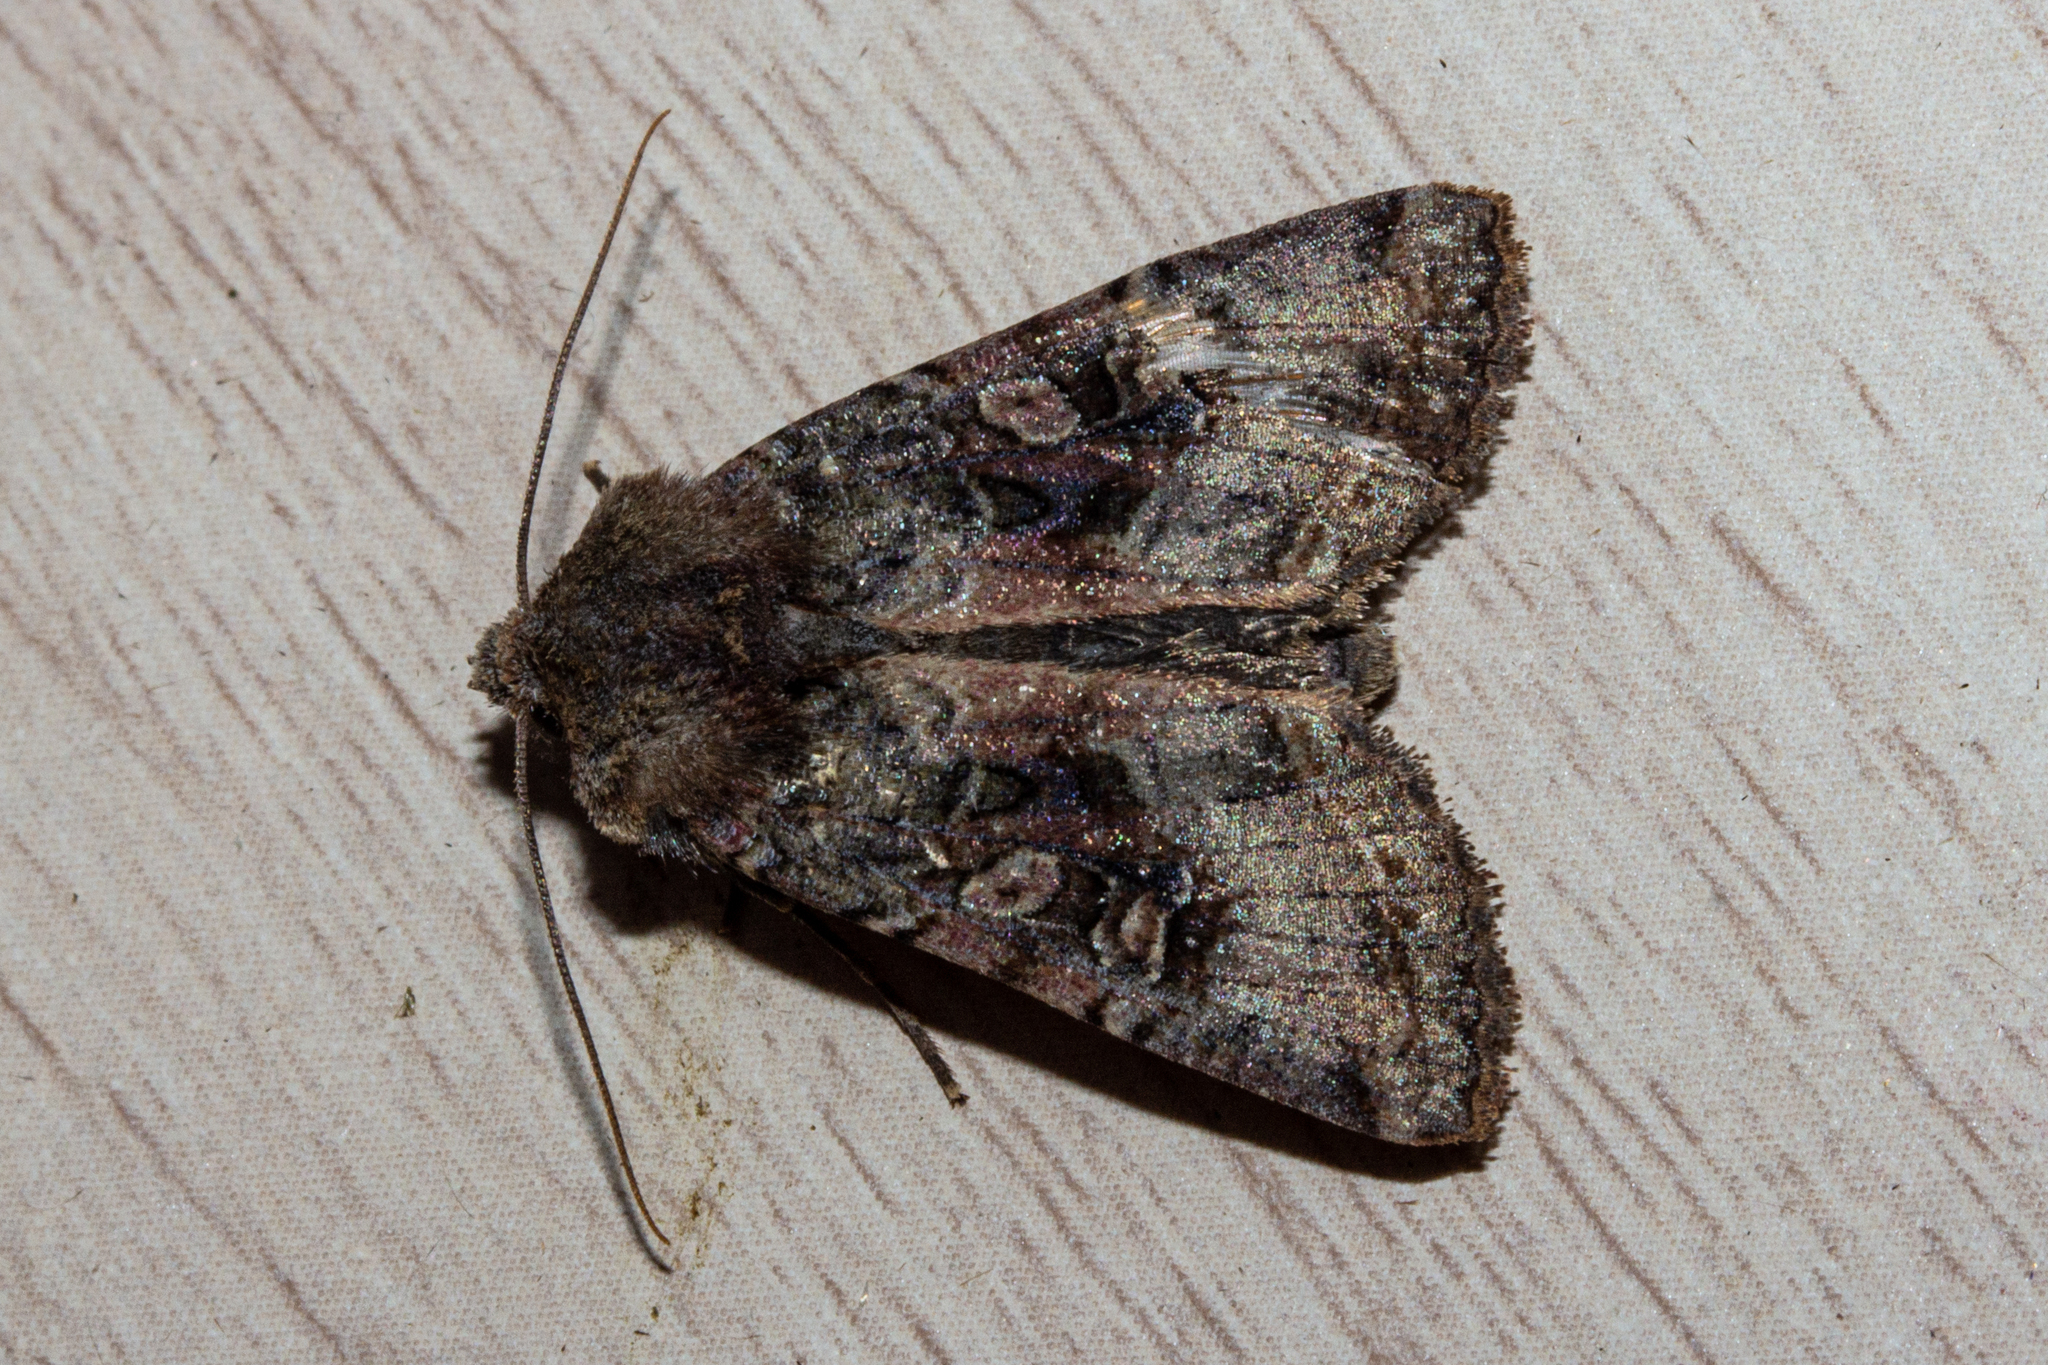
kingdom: Animalia
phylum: Arthropoda
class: Insecta
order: Lepidoptera
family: Noctuidae
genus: Meterana
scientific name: Meterana tartaraea
